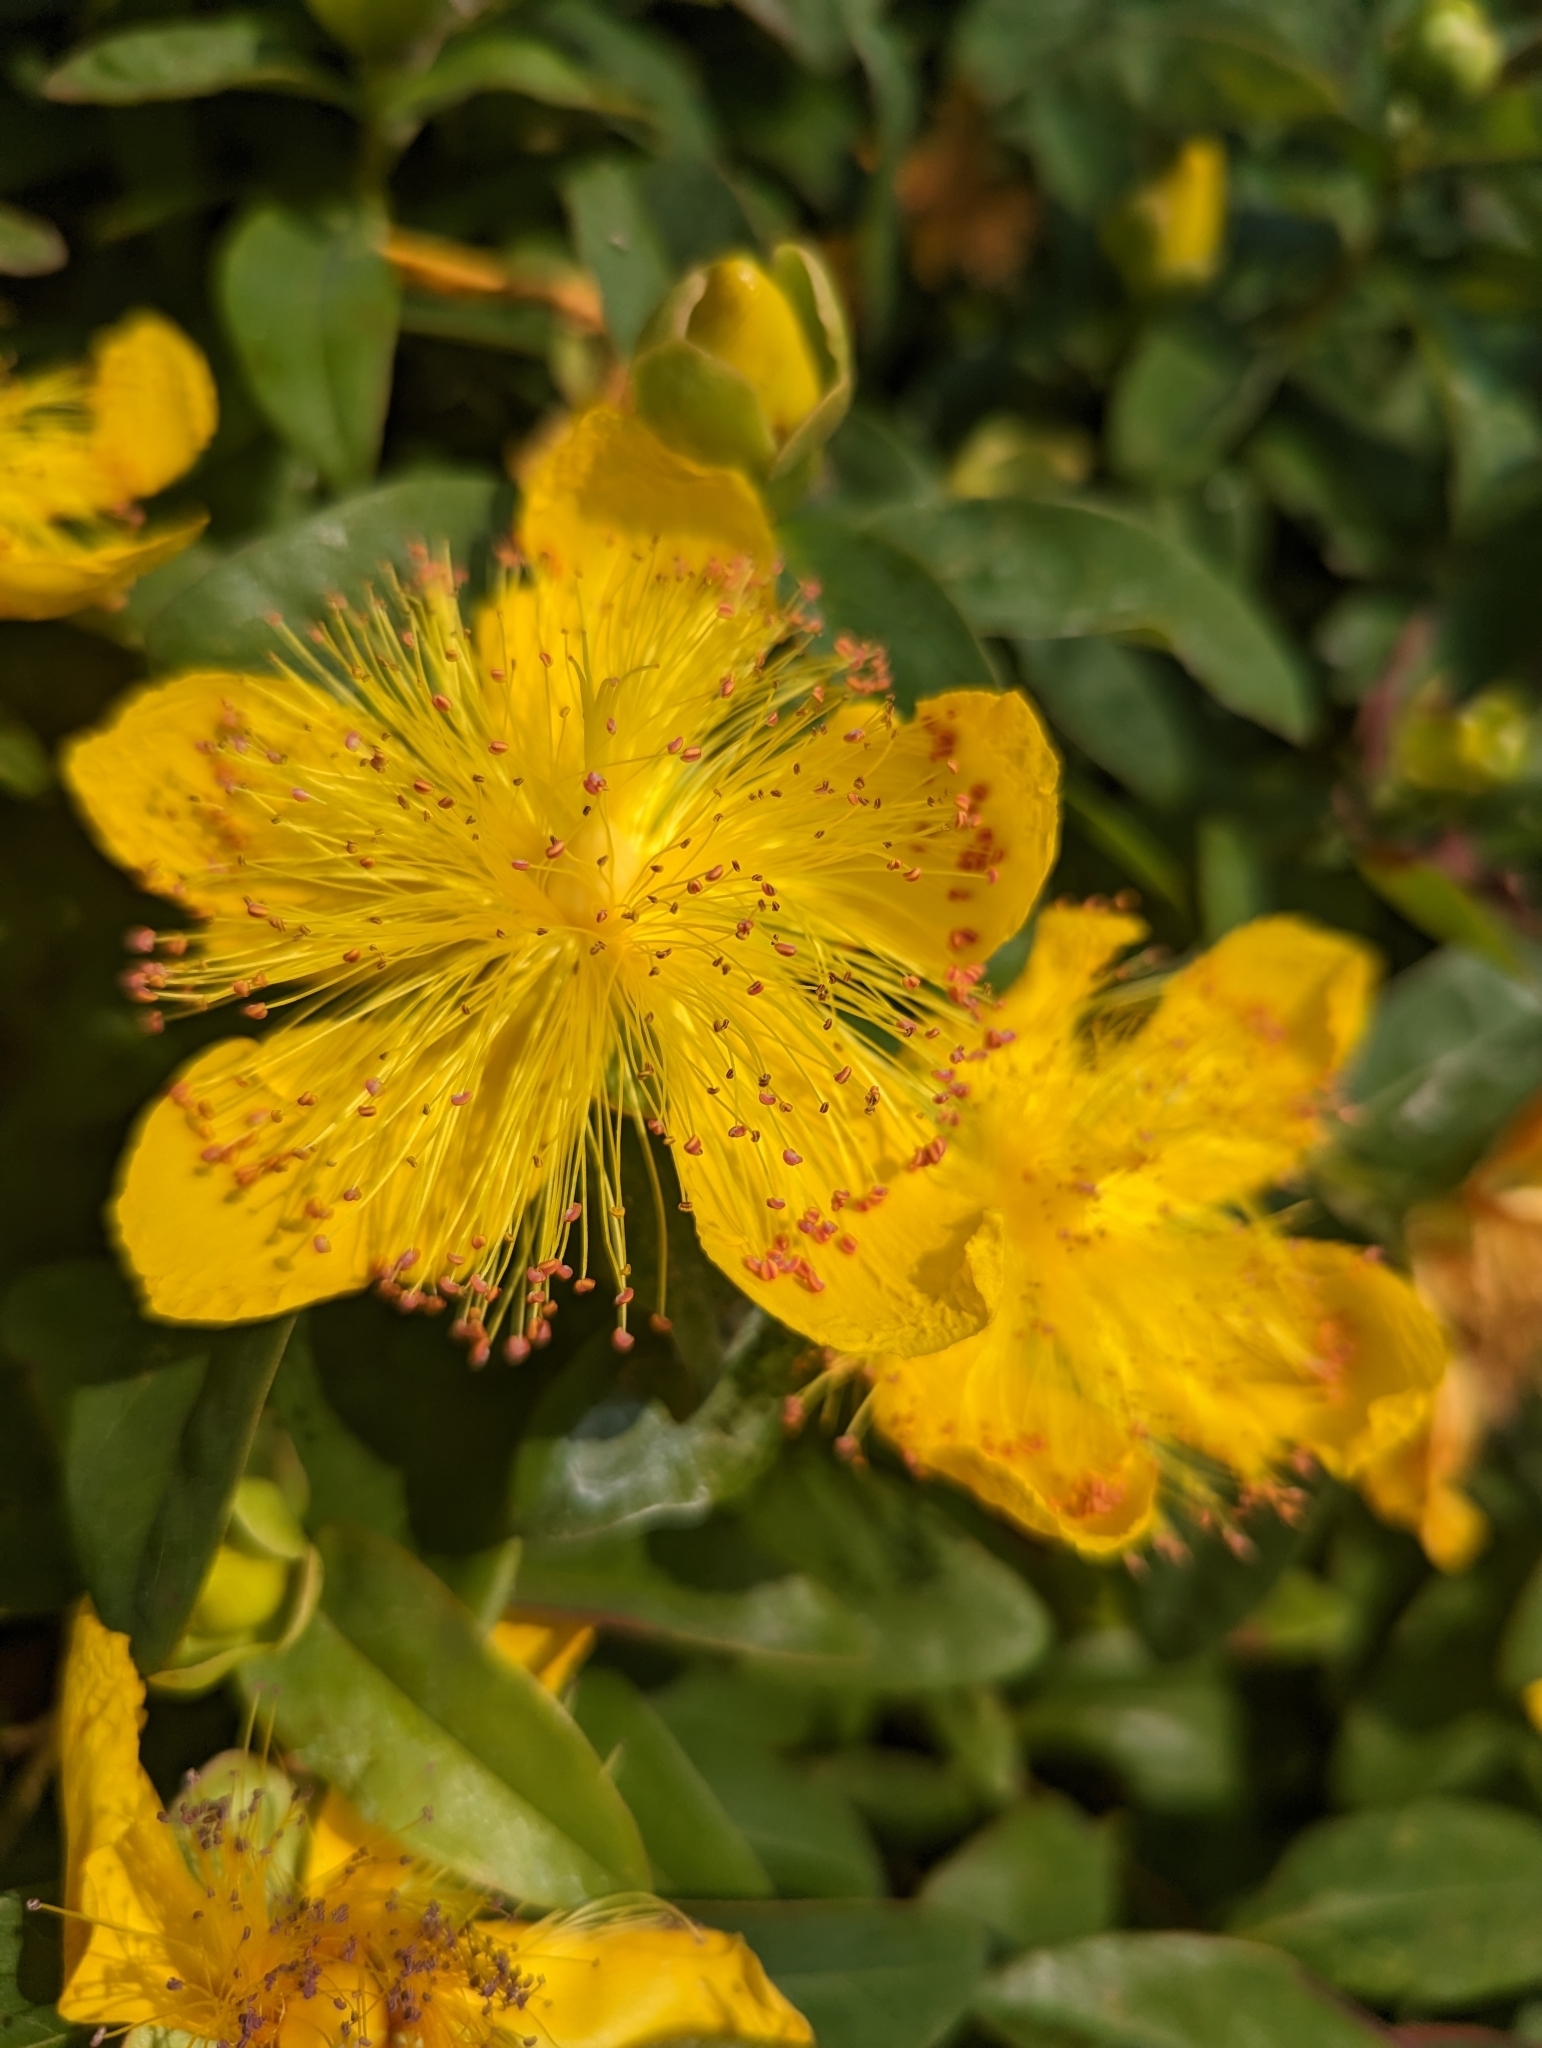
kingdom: Plantae
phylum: Tracheophyta
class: Magnoliopsida
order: Malpighiales
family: Hypericaceae
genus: Hypericum
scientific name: Hypericum calycinum
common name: Rose-of-sharon
